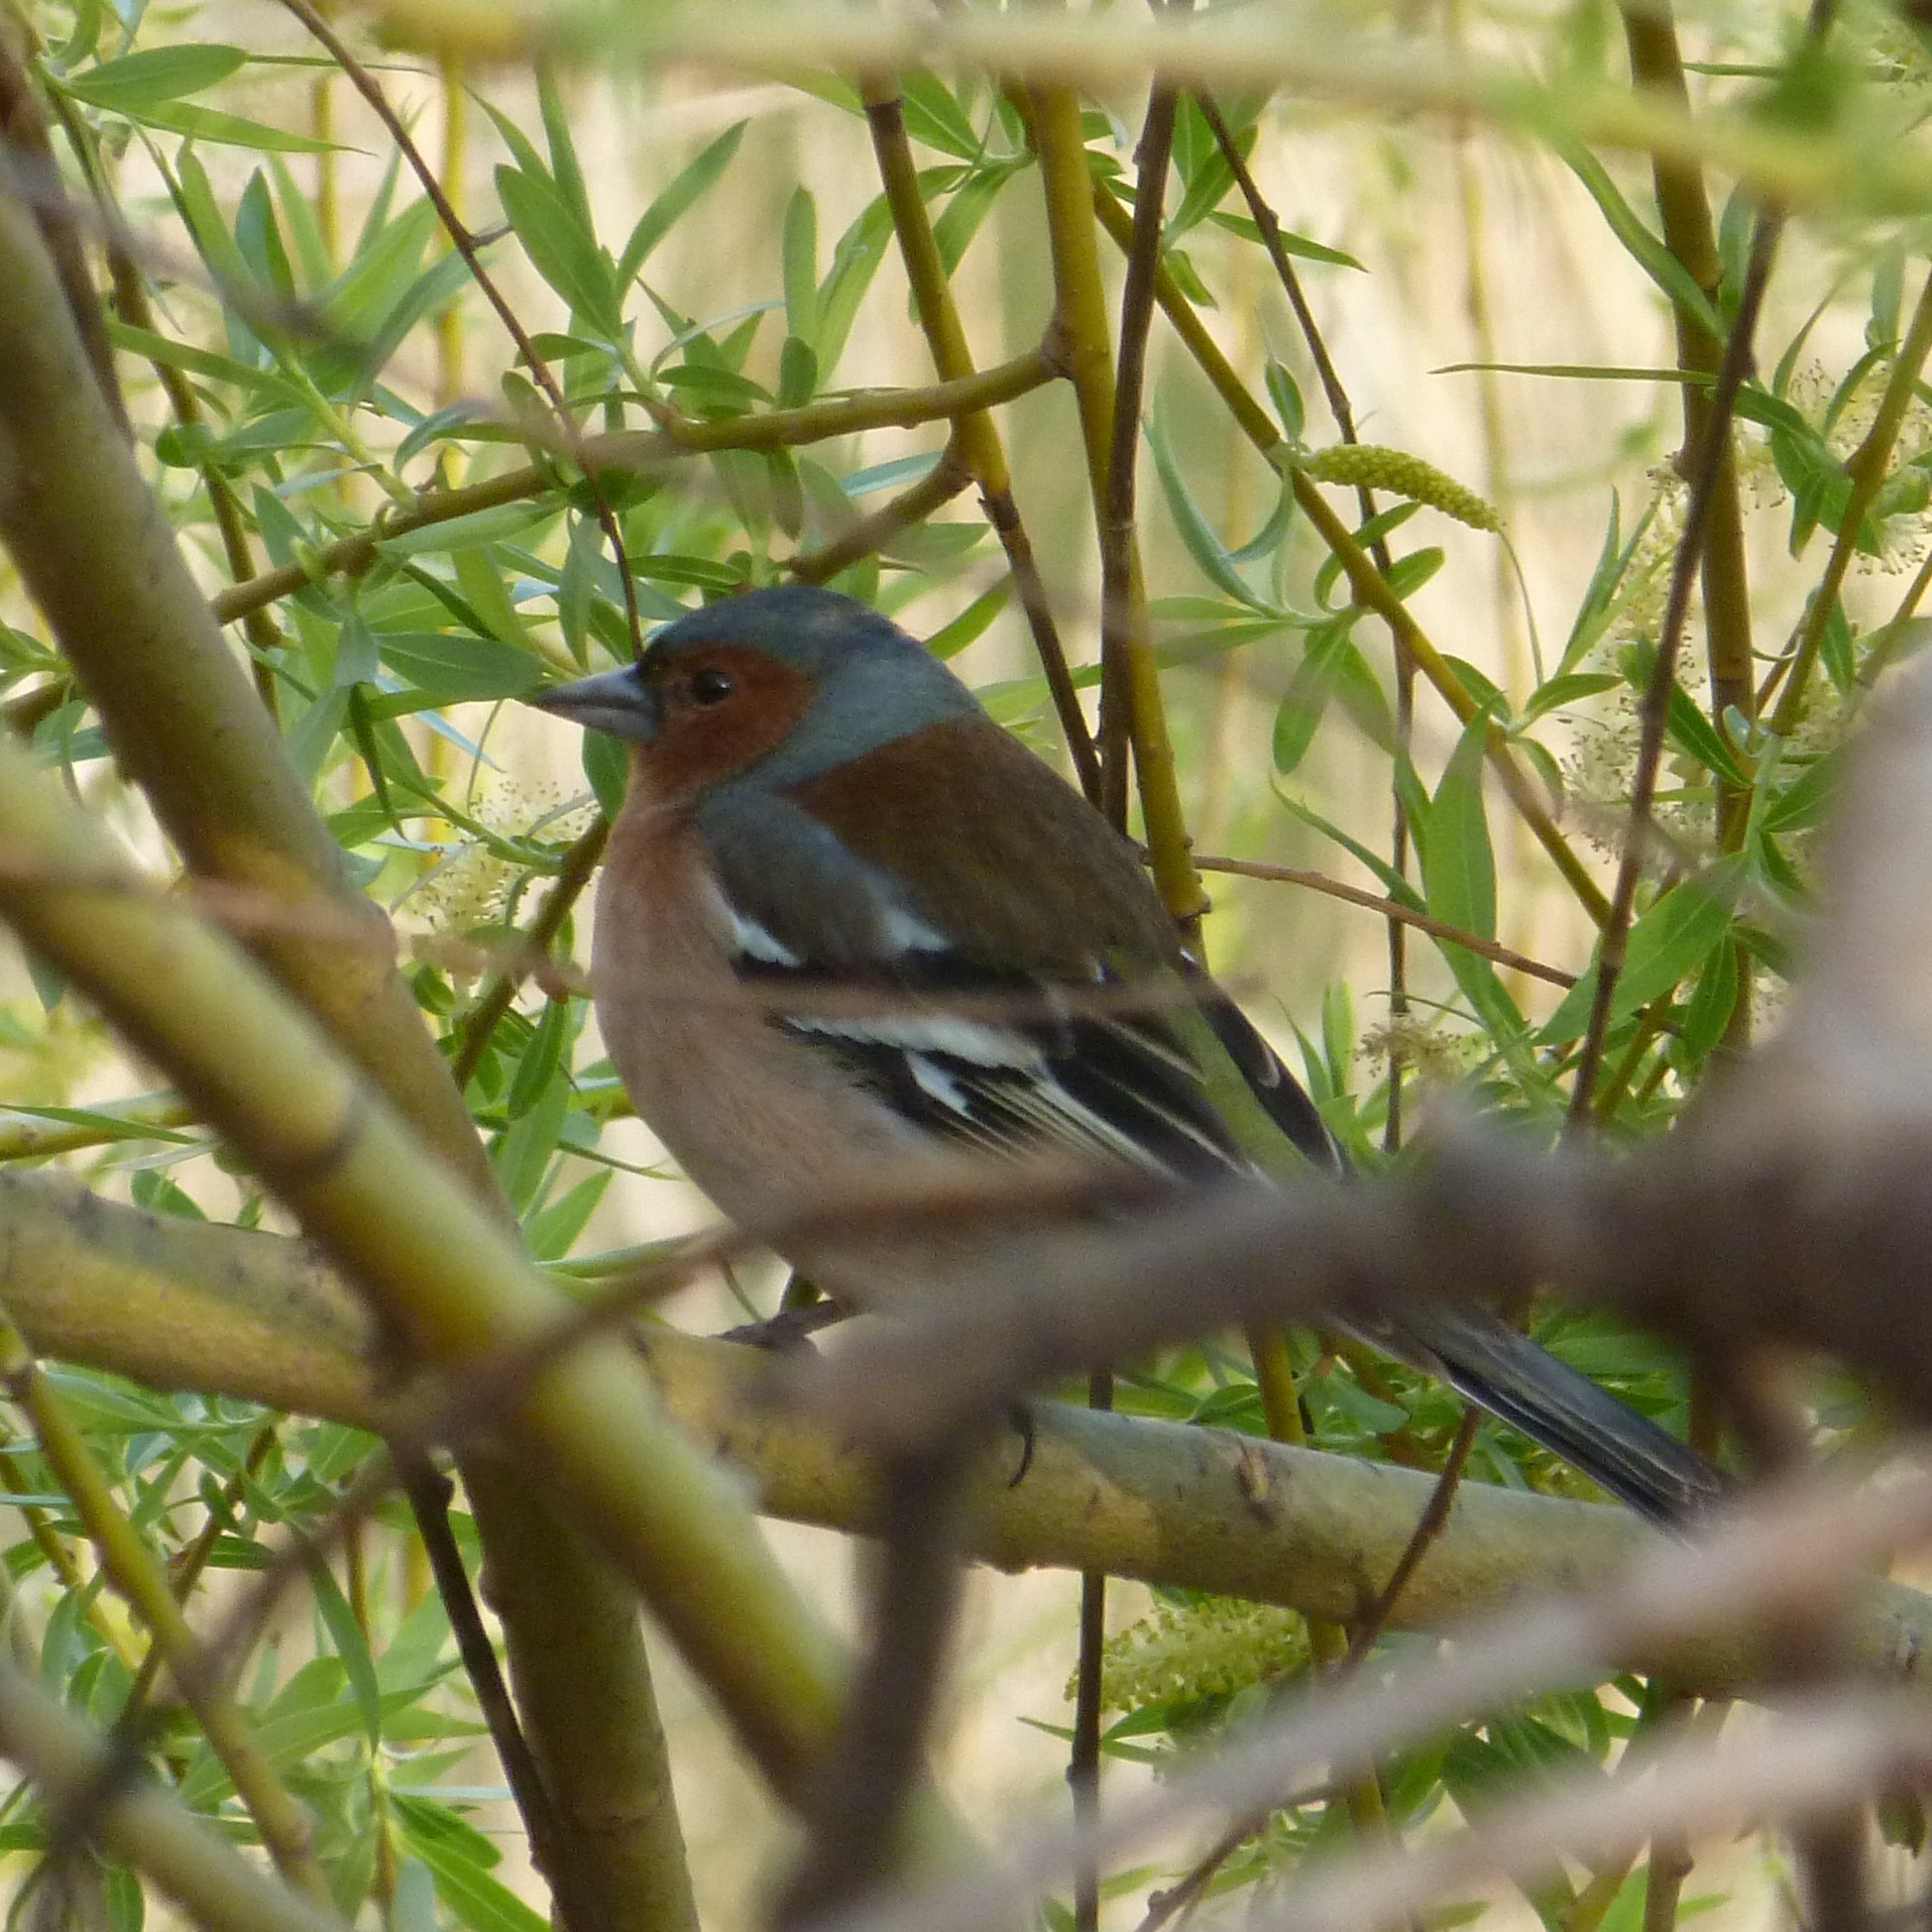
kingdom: Animalia
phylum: Chordata
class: Aves
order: Passeriformes
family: Fringillidae
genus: Fringilla
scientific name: Fringilla coelebs
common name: Common chaffinch
